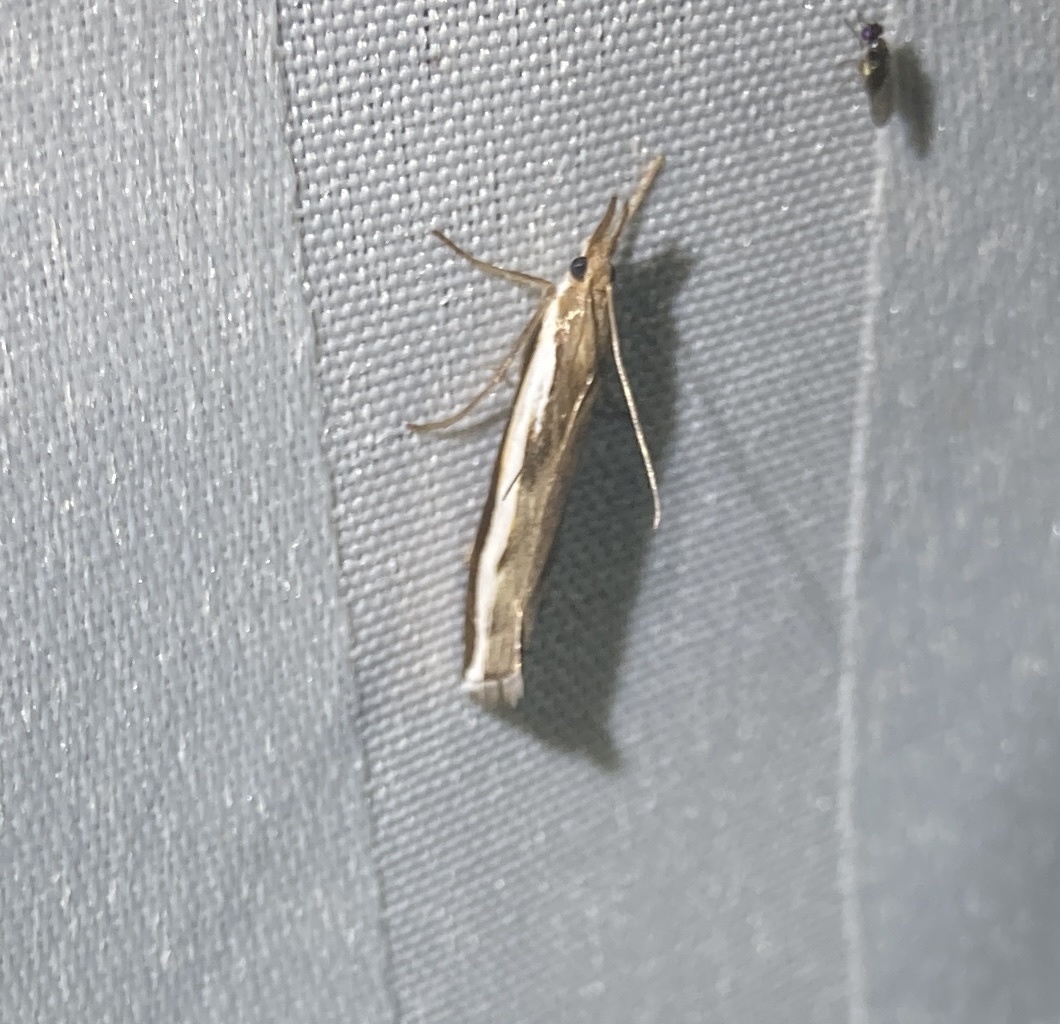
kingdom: Animalia
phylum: Arthropoda
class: Insecta
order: Lepidoptera
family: Crambidae
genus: Orocrambus
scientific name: Orocrambus flexuosellus
